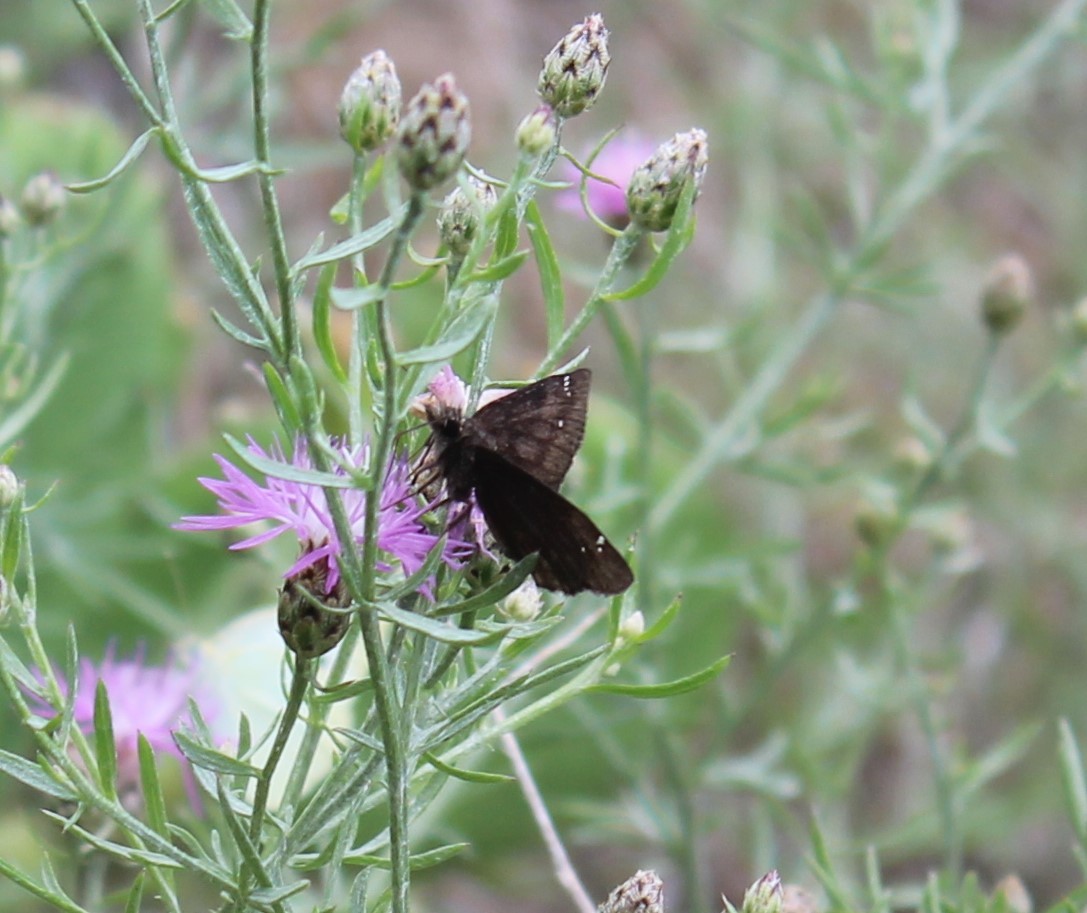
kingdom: Animalia
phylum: Arthropoda
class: Insecta
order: Lepidoptera
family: Hesperiidae
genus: Erynnis
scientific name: Erynnis baptisiae
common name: Wild indigo duskywing
